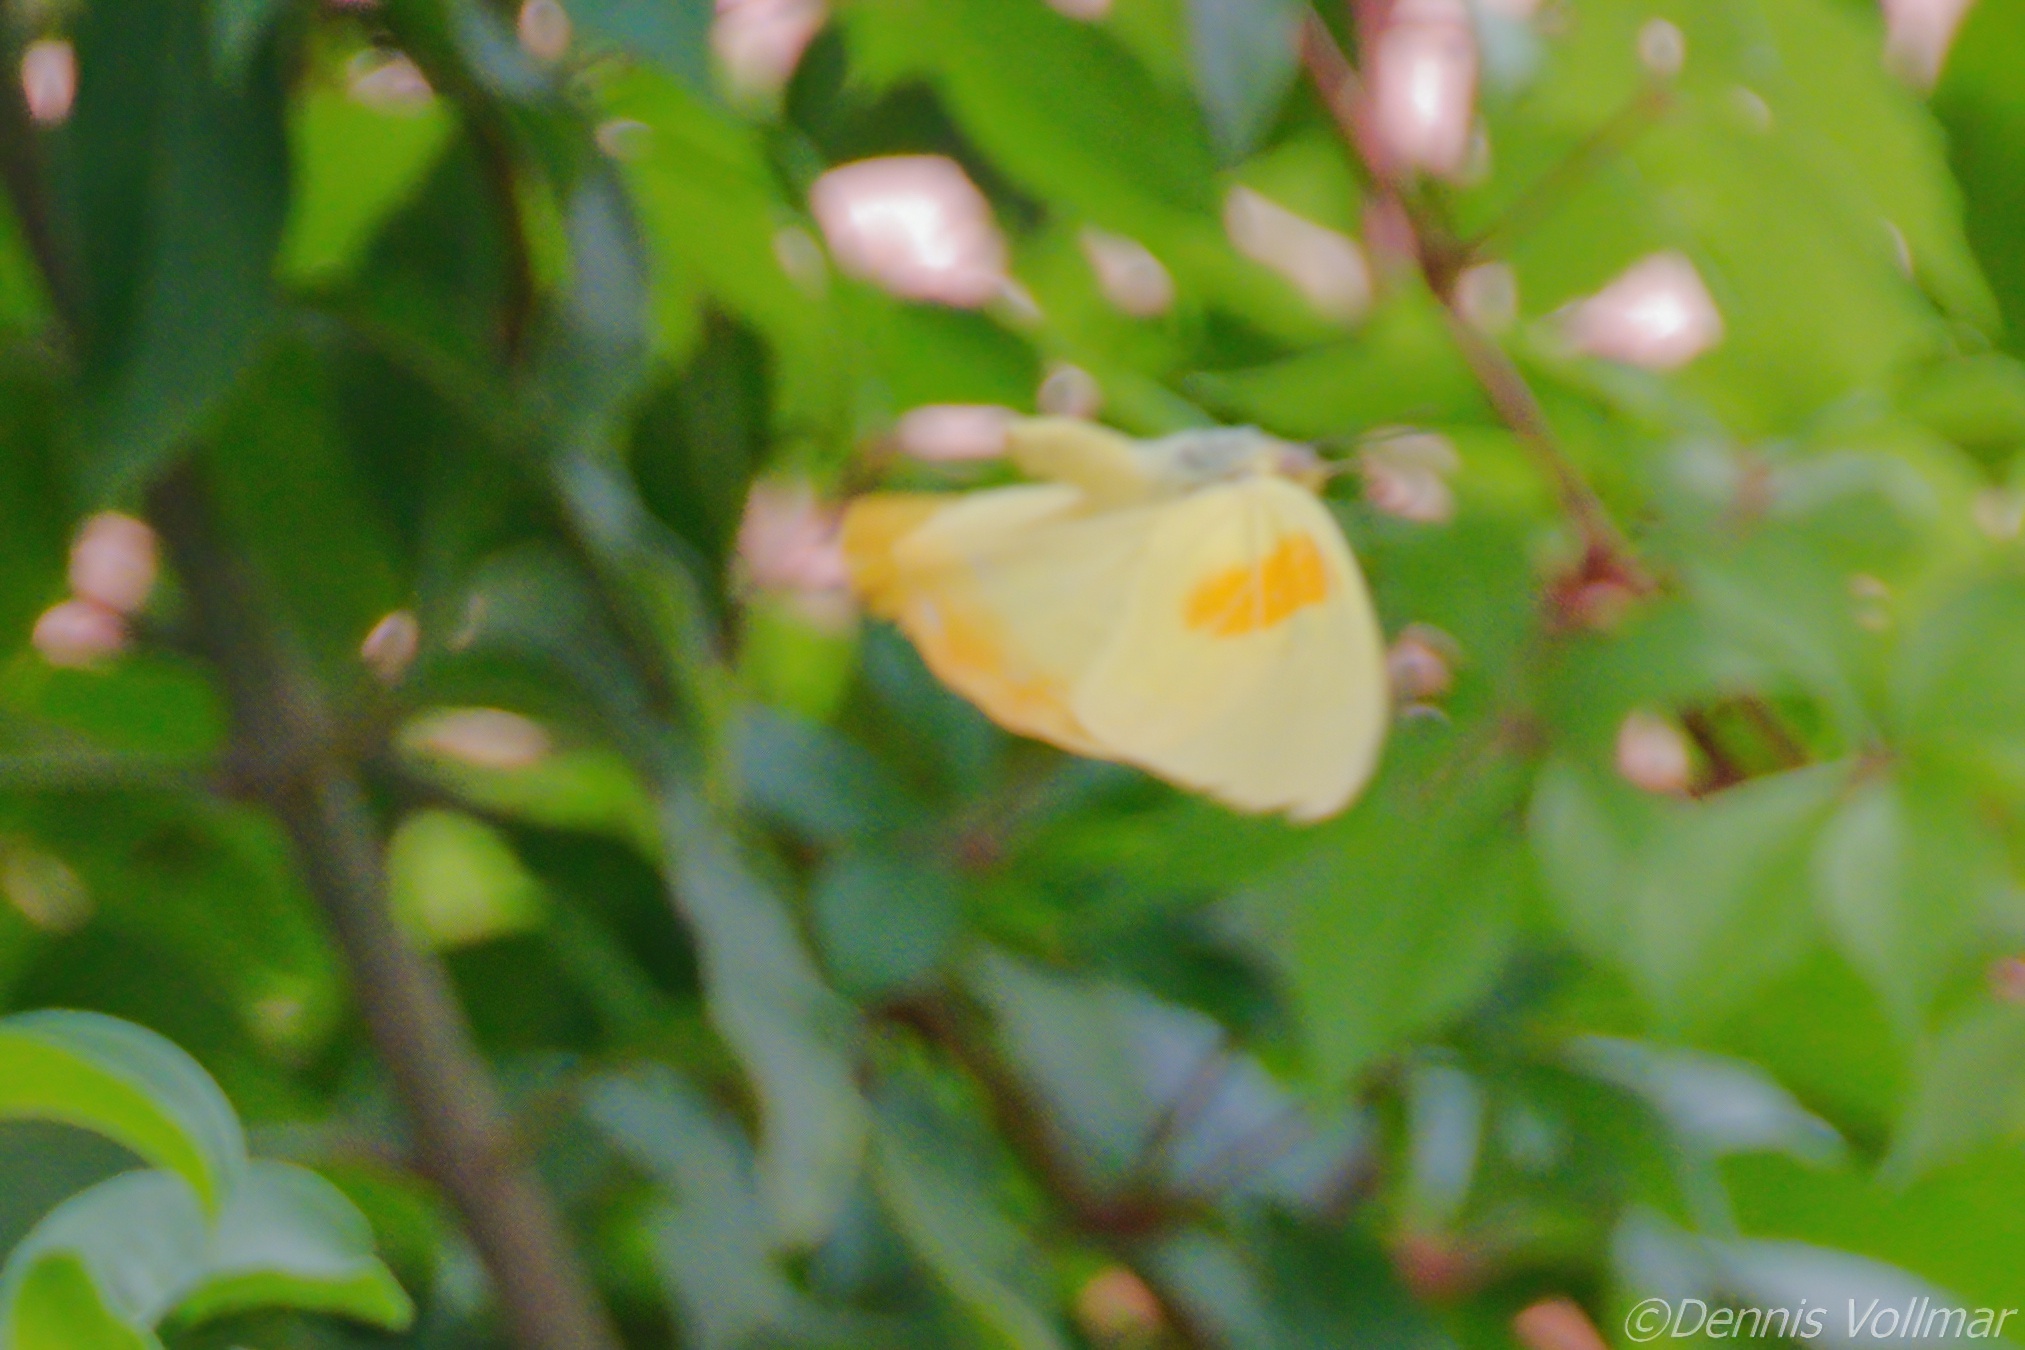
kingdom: Animalia
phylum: Arthropoda
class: Insecta
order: Lepidoptera
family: Pieridae
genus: Phoebis
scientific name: Phoebis philea
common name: Orange-barred giant sulphur
